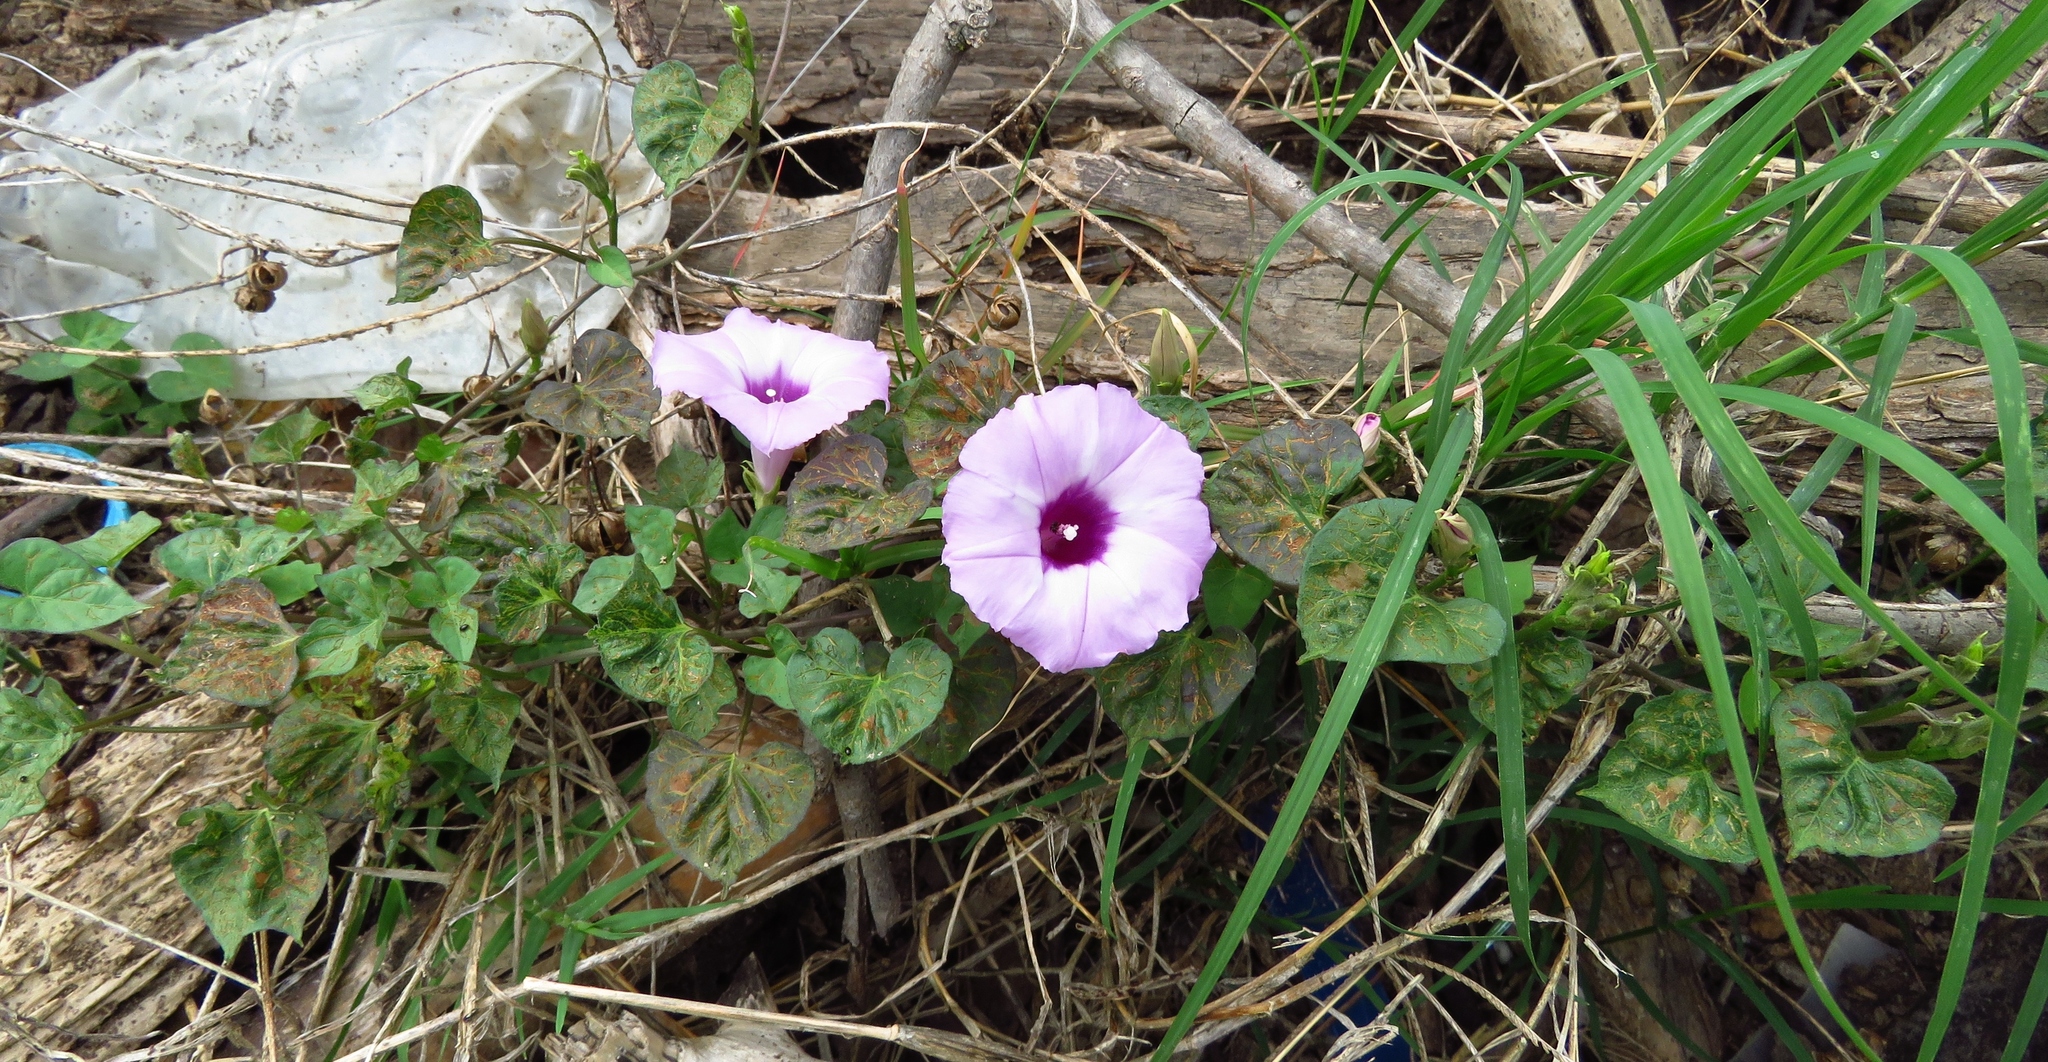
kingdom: Plantae
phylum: Tracheophyta
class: Magnoliopsida
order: Solanales
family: Convolvulaceae
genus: Ipomoea
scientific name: Ipomoea cordatotriloba
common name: Cotton morning glory
